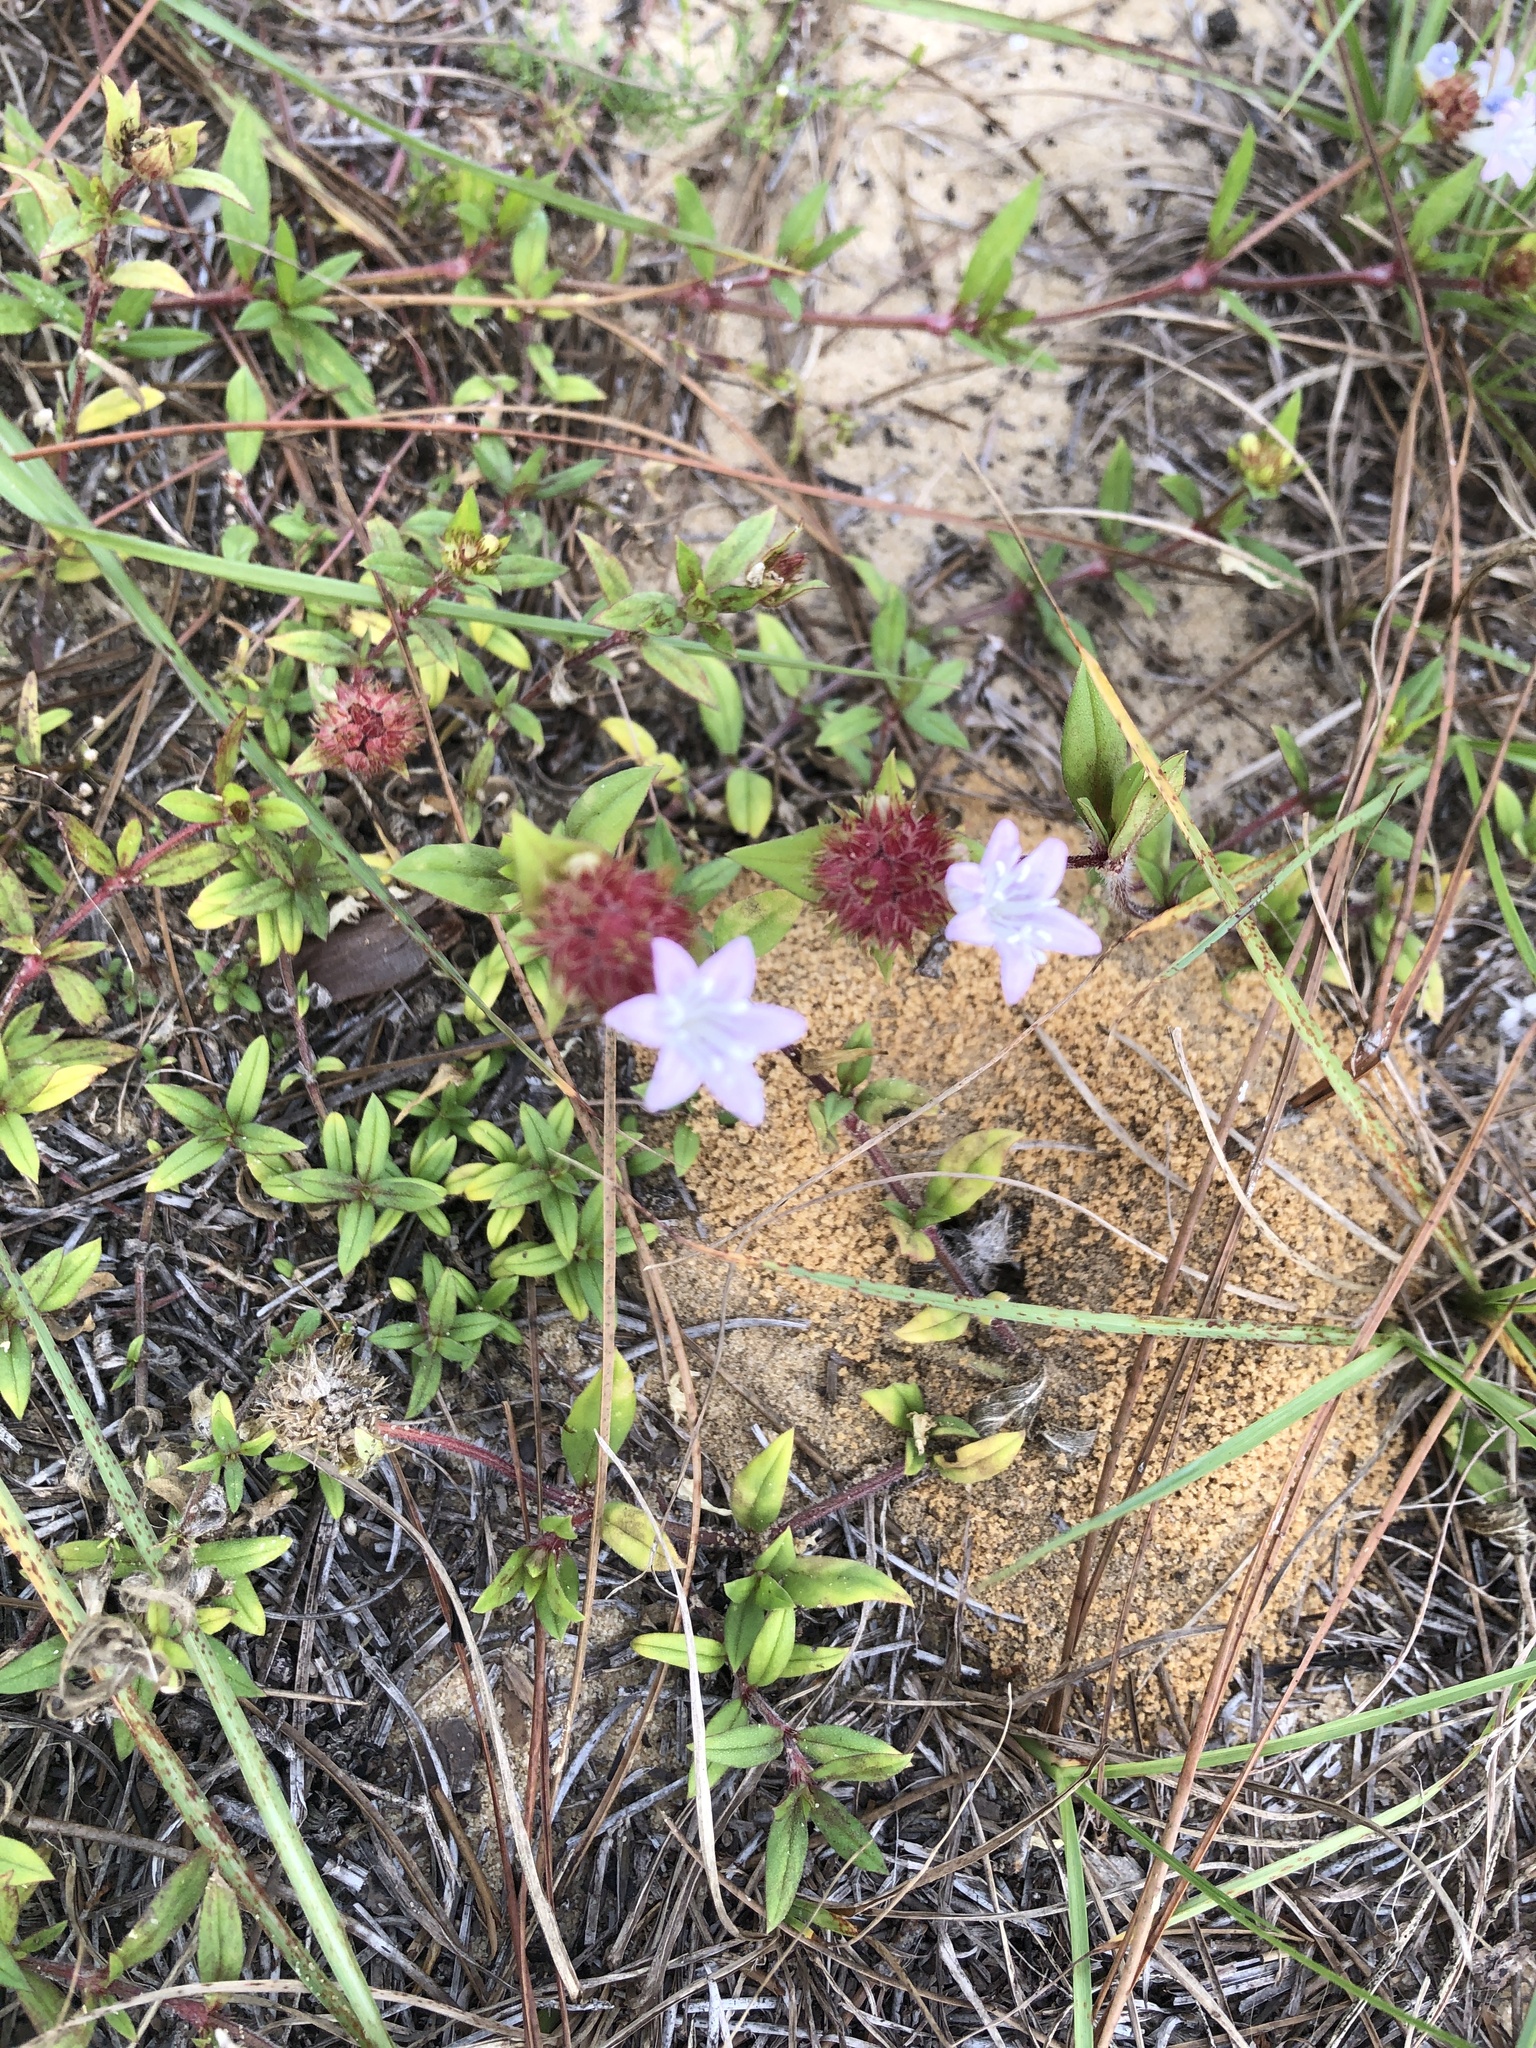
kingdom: Plantae
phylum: Tracheophyta
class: Magnoliopsida
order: Gentianales
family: Rubiaceae
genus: Richardia
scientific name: Richardia grandiflora
